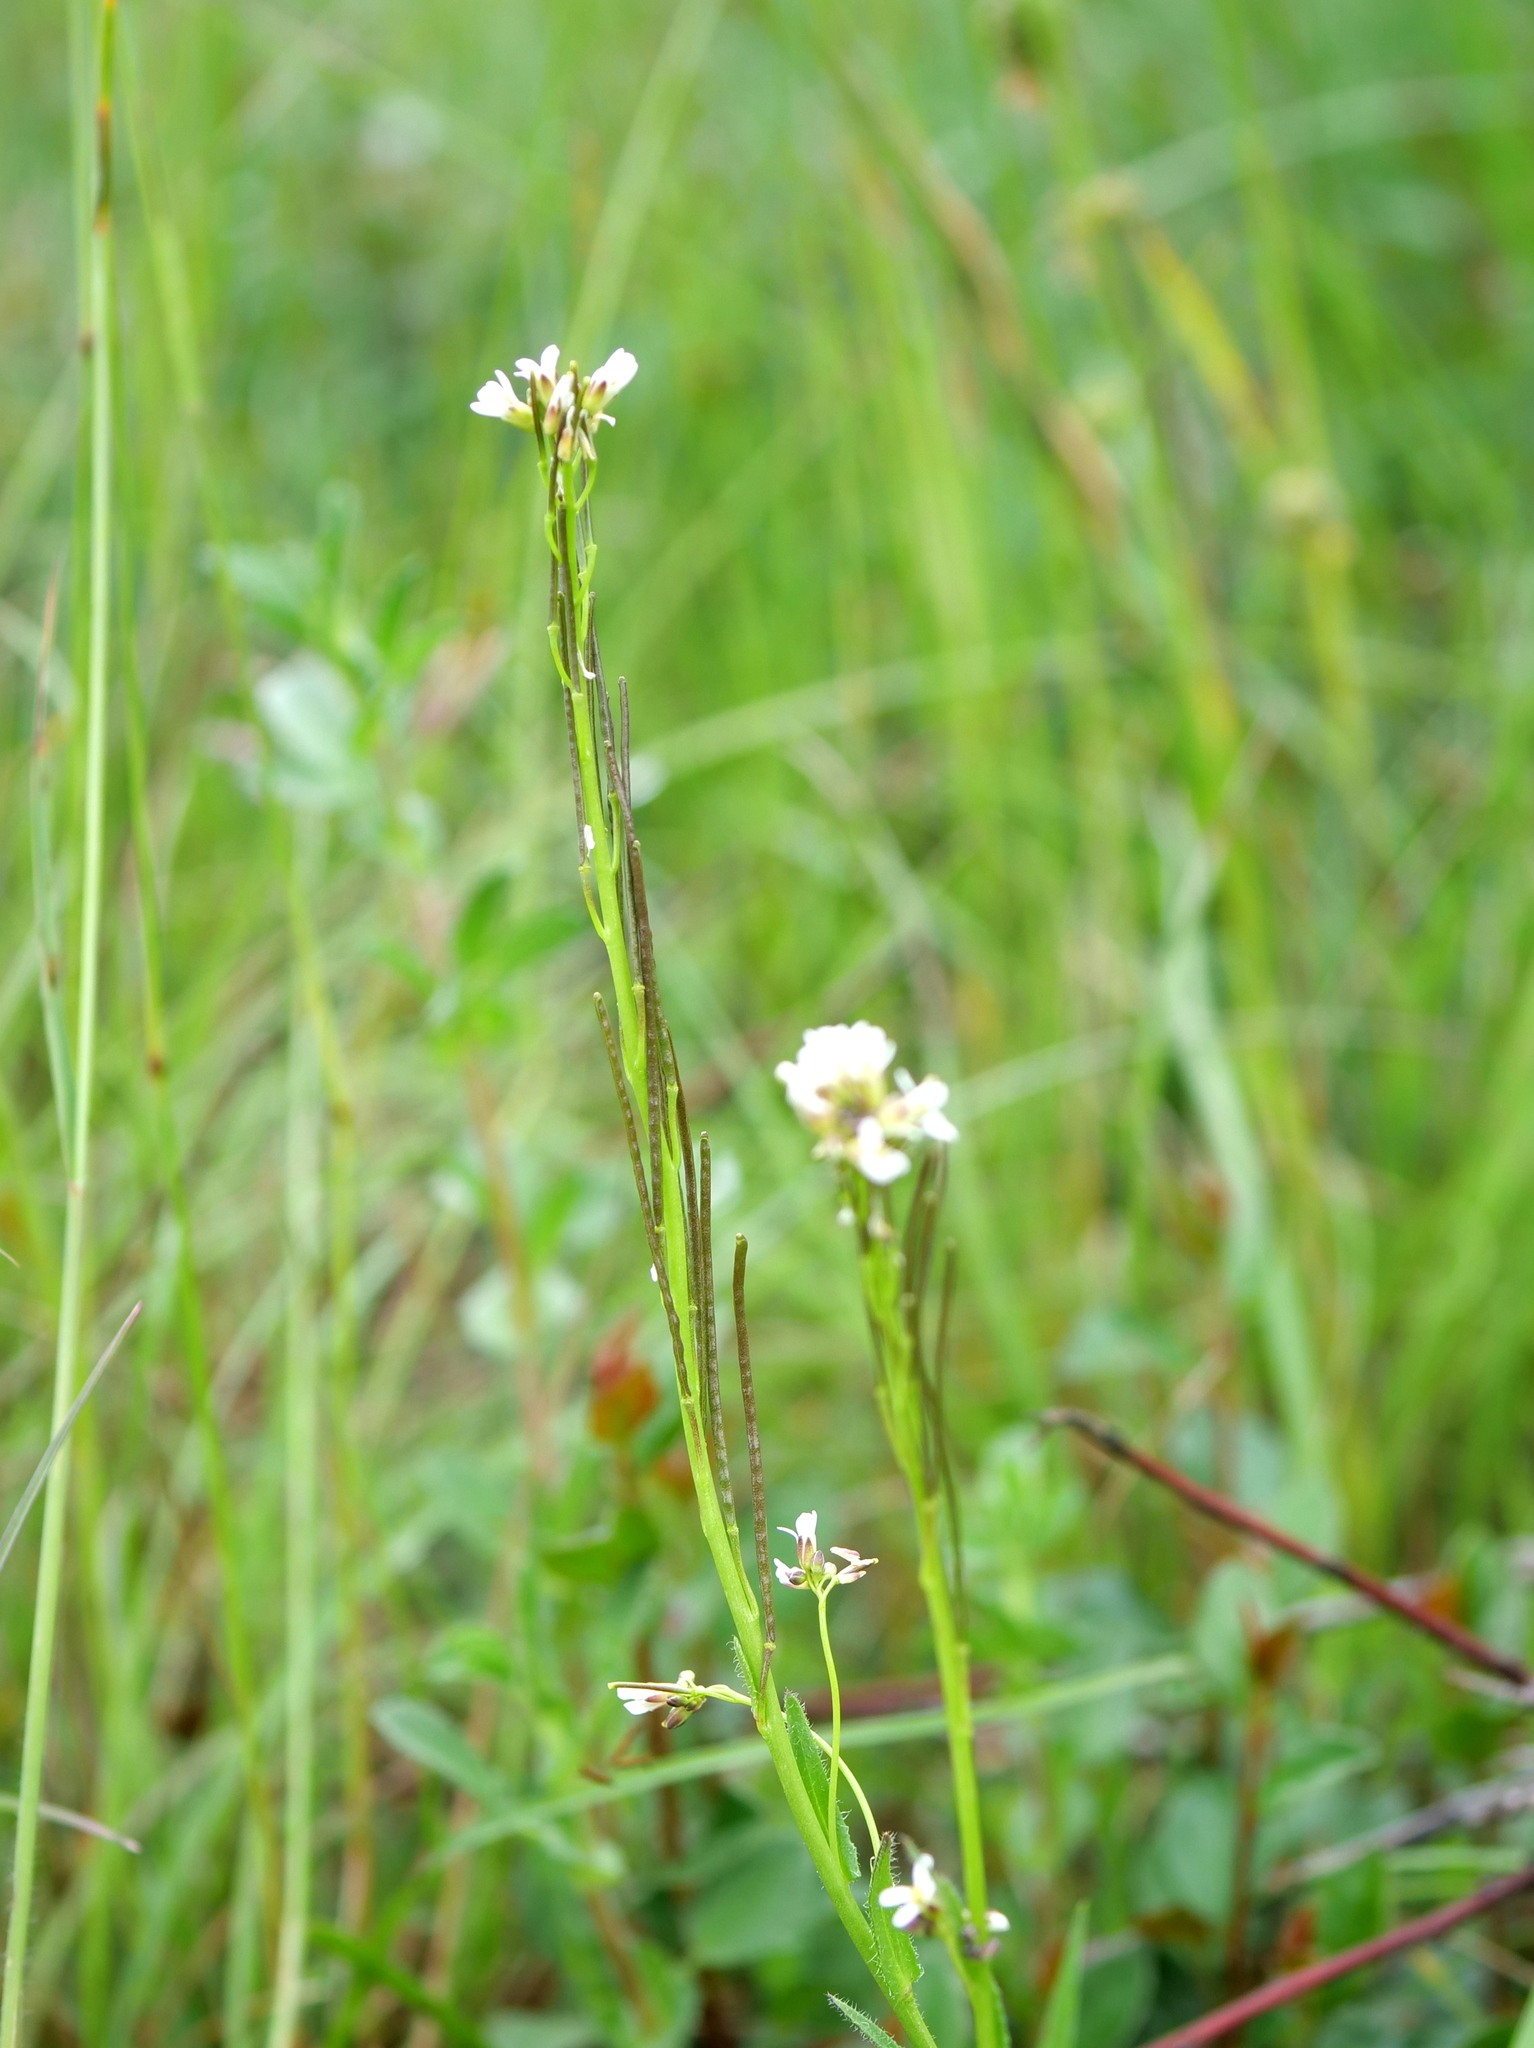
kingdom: Plantae
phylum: Tracheophyta
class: Magnoliopsida
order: Brassicales
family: Brassicaceae
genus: Arabis
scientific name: Arabis hirsuta
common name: Hairy rock-cress
